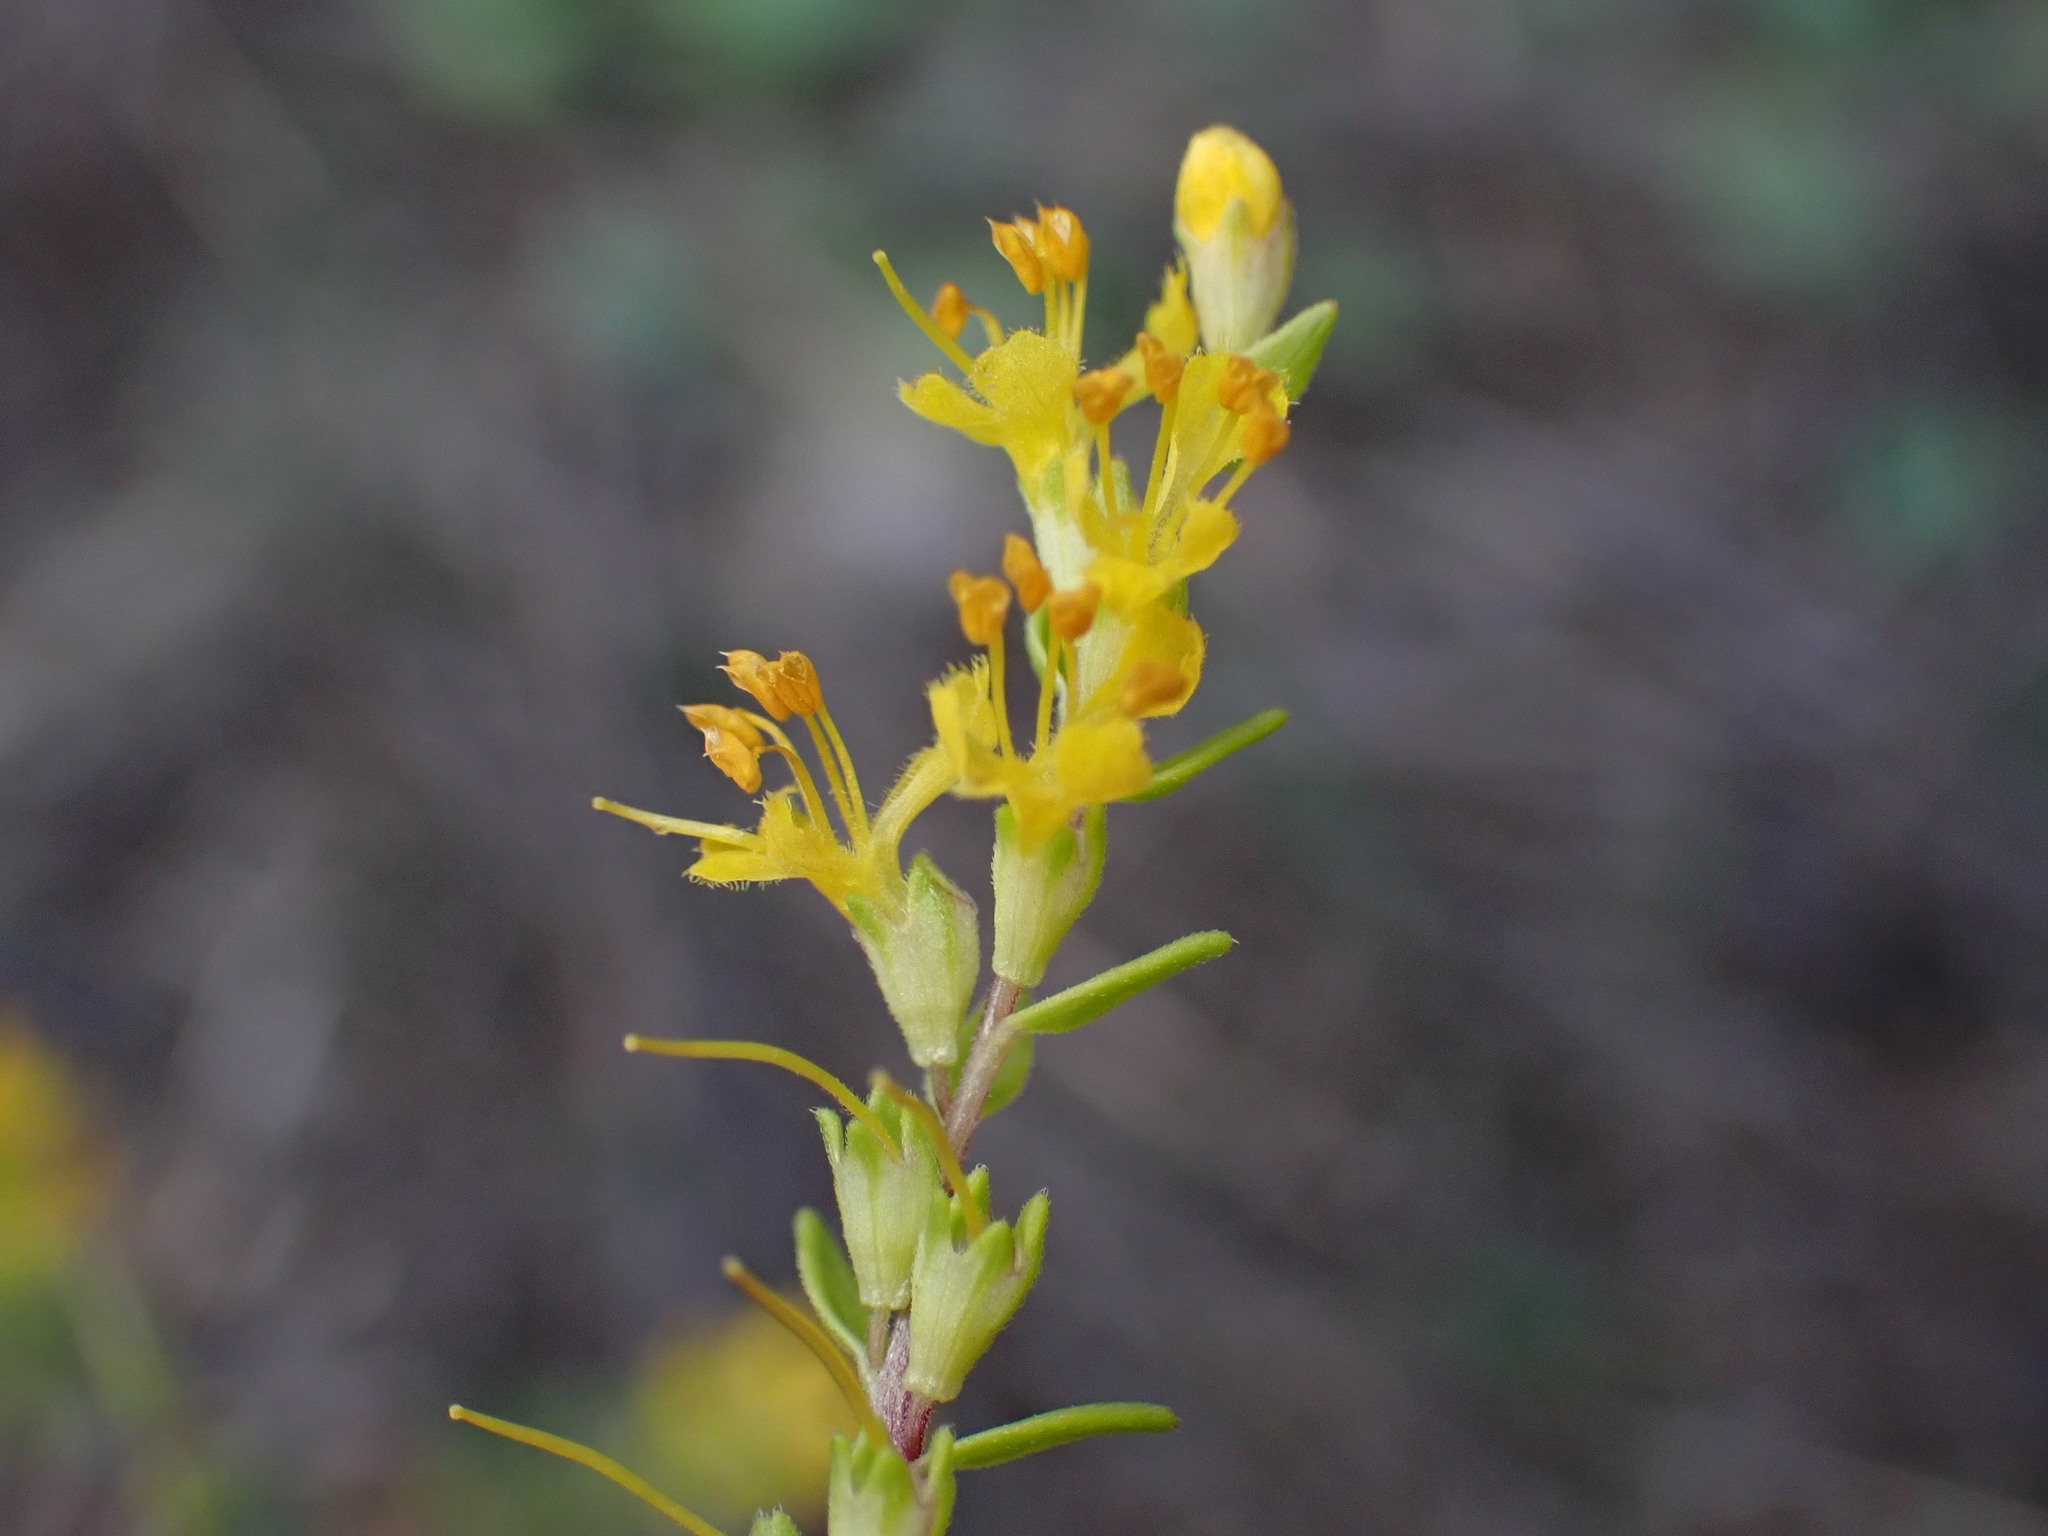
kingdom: Plantae
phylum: Tracheophyta
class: Magnoliopsida
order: Lamiales
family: Orobanchaceae
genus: Odontites
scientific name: Odontites luteus
